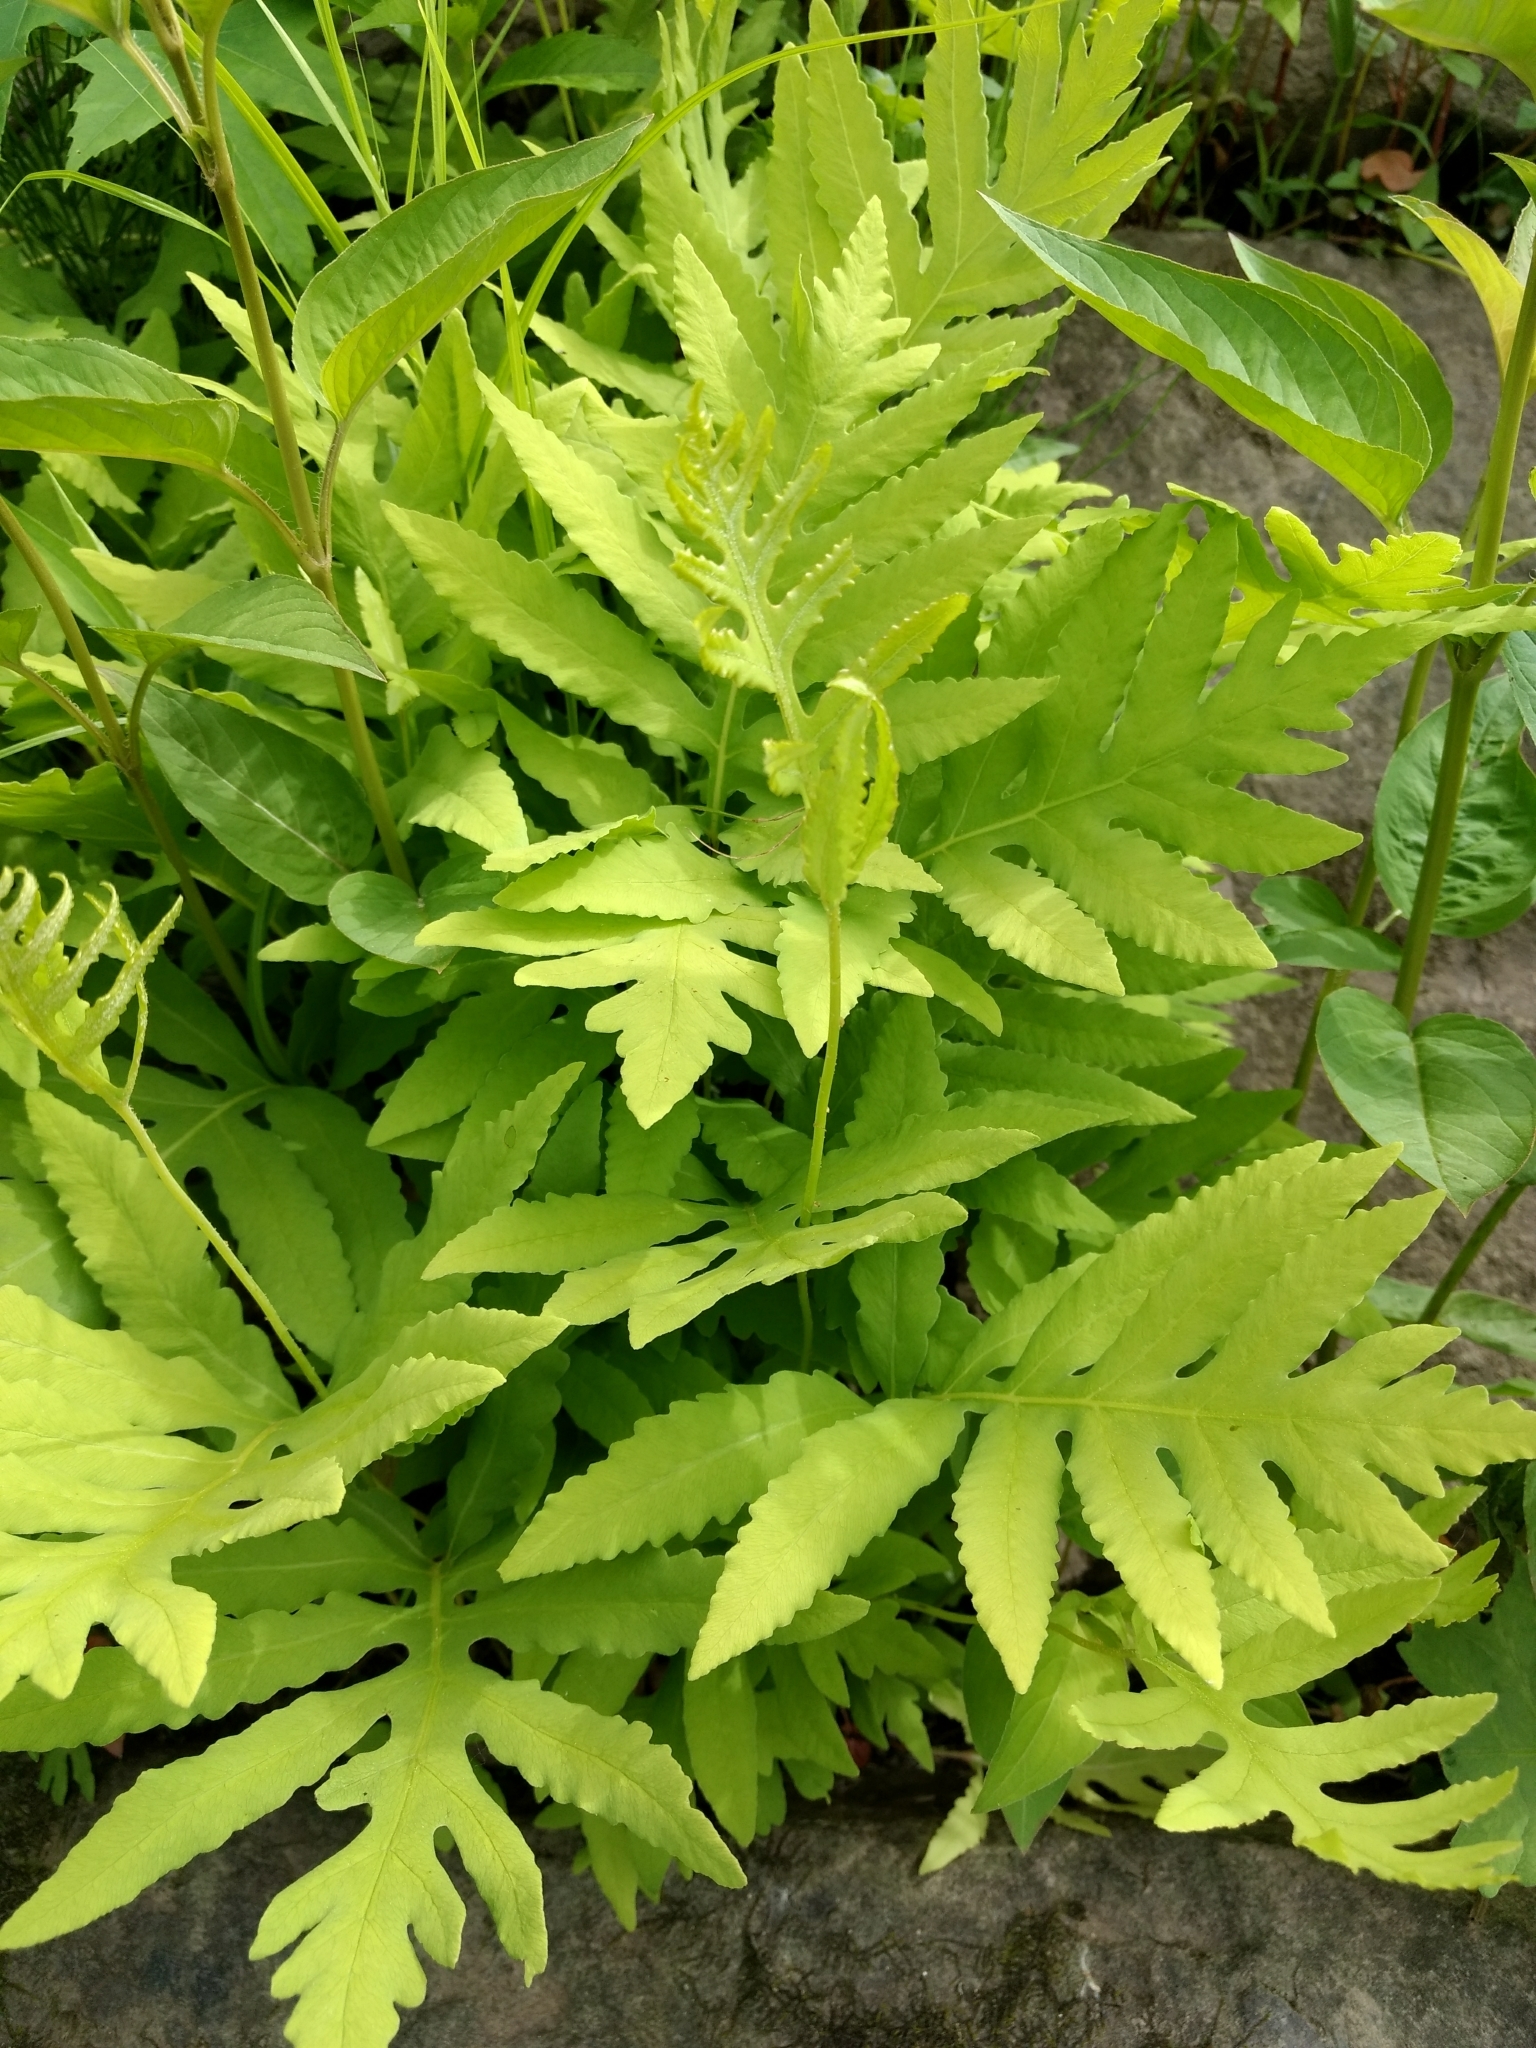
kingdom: Plantae
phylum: Tracheophyta
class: Polypodiopsida
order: Polypodiales
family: Onocleaceae
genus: Onoclea
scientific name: Onoclea sensibilis
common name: Sensitive fern
